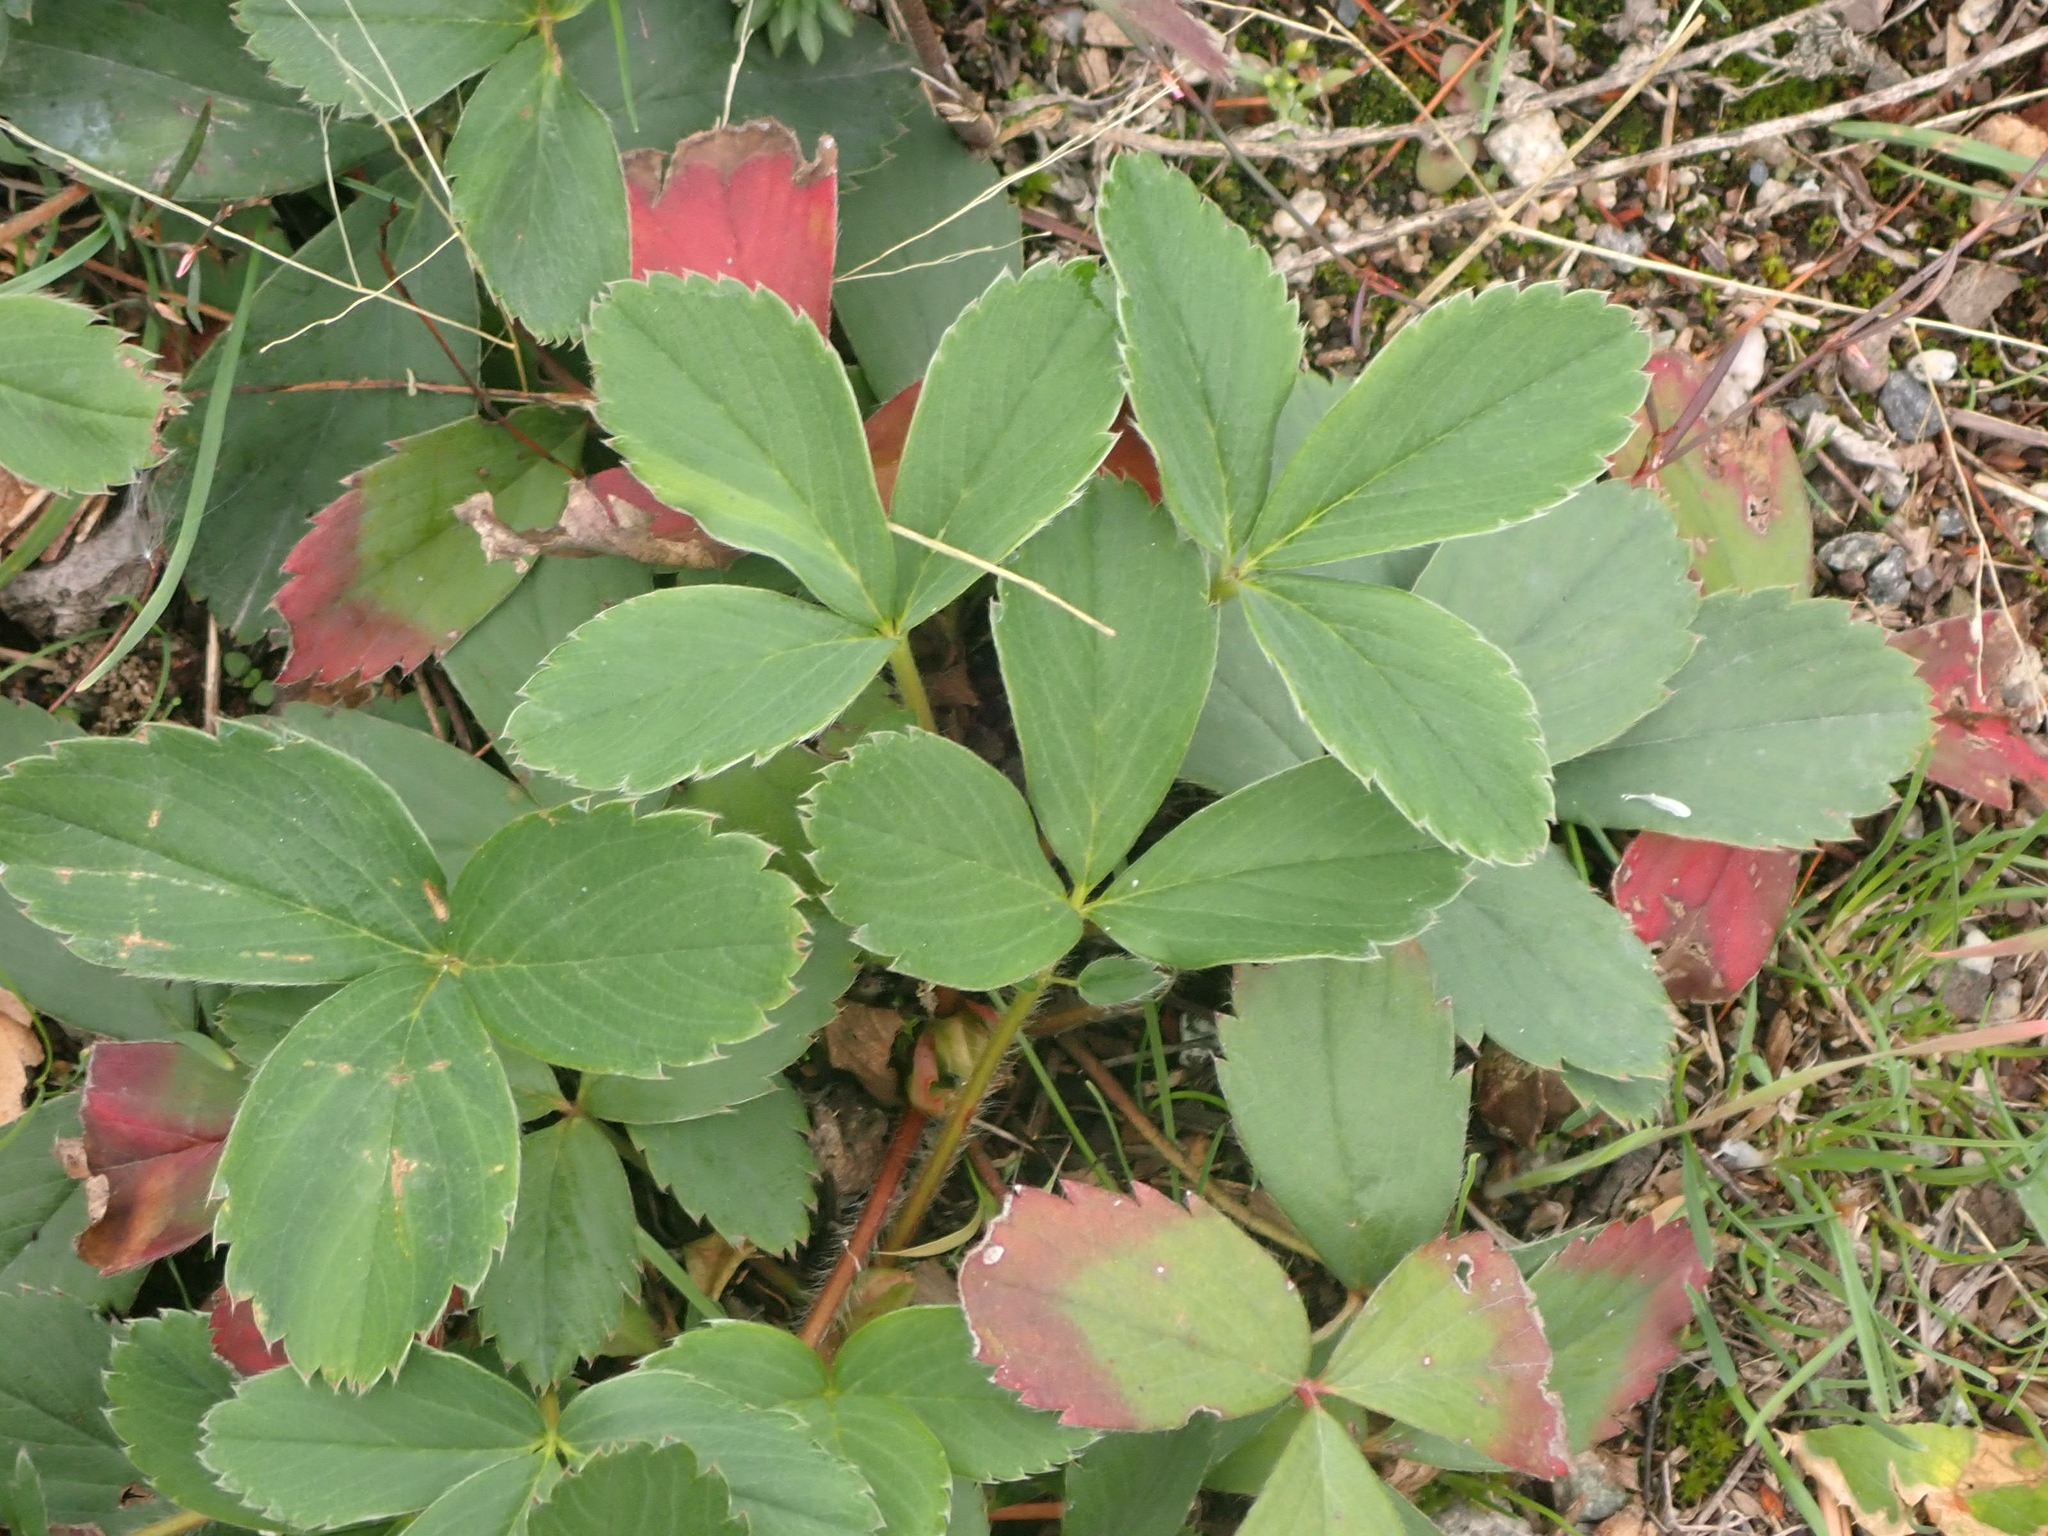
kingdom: Plantae
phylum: Tracheophyta
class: Magnoliopsida
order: Rosales
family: Rosaceae
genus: Fragaria
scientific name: Fragaria virginiana
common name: Thickleaved wild strawberry
